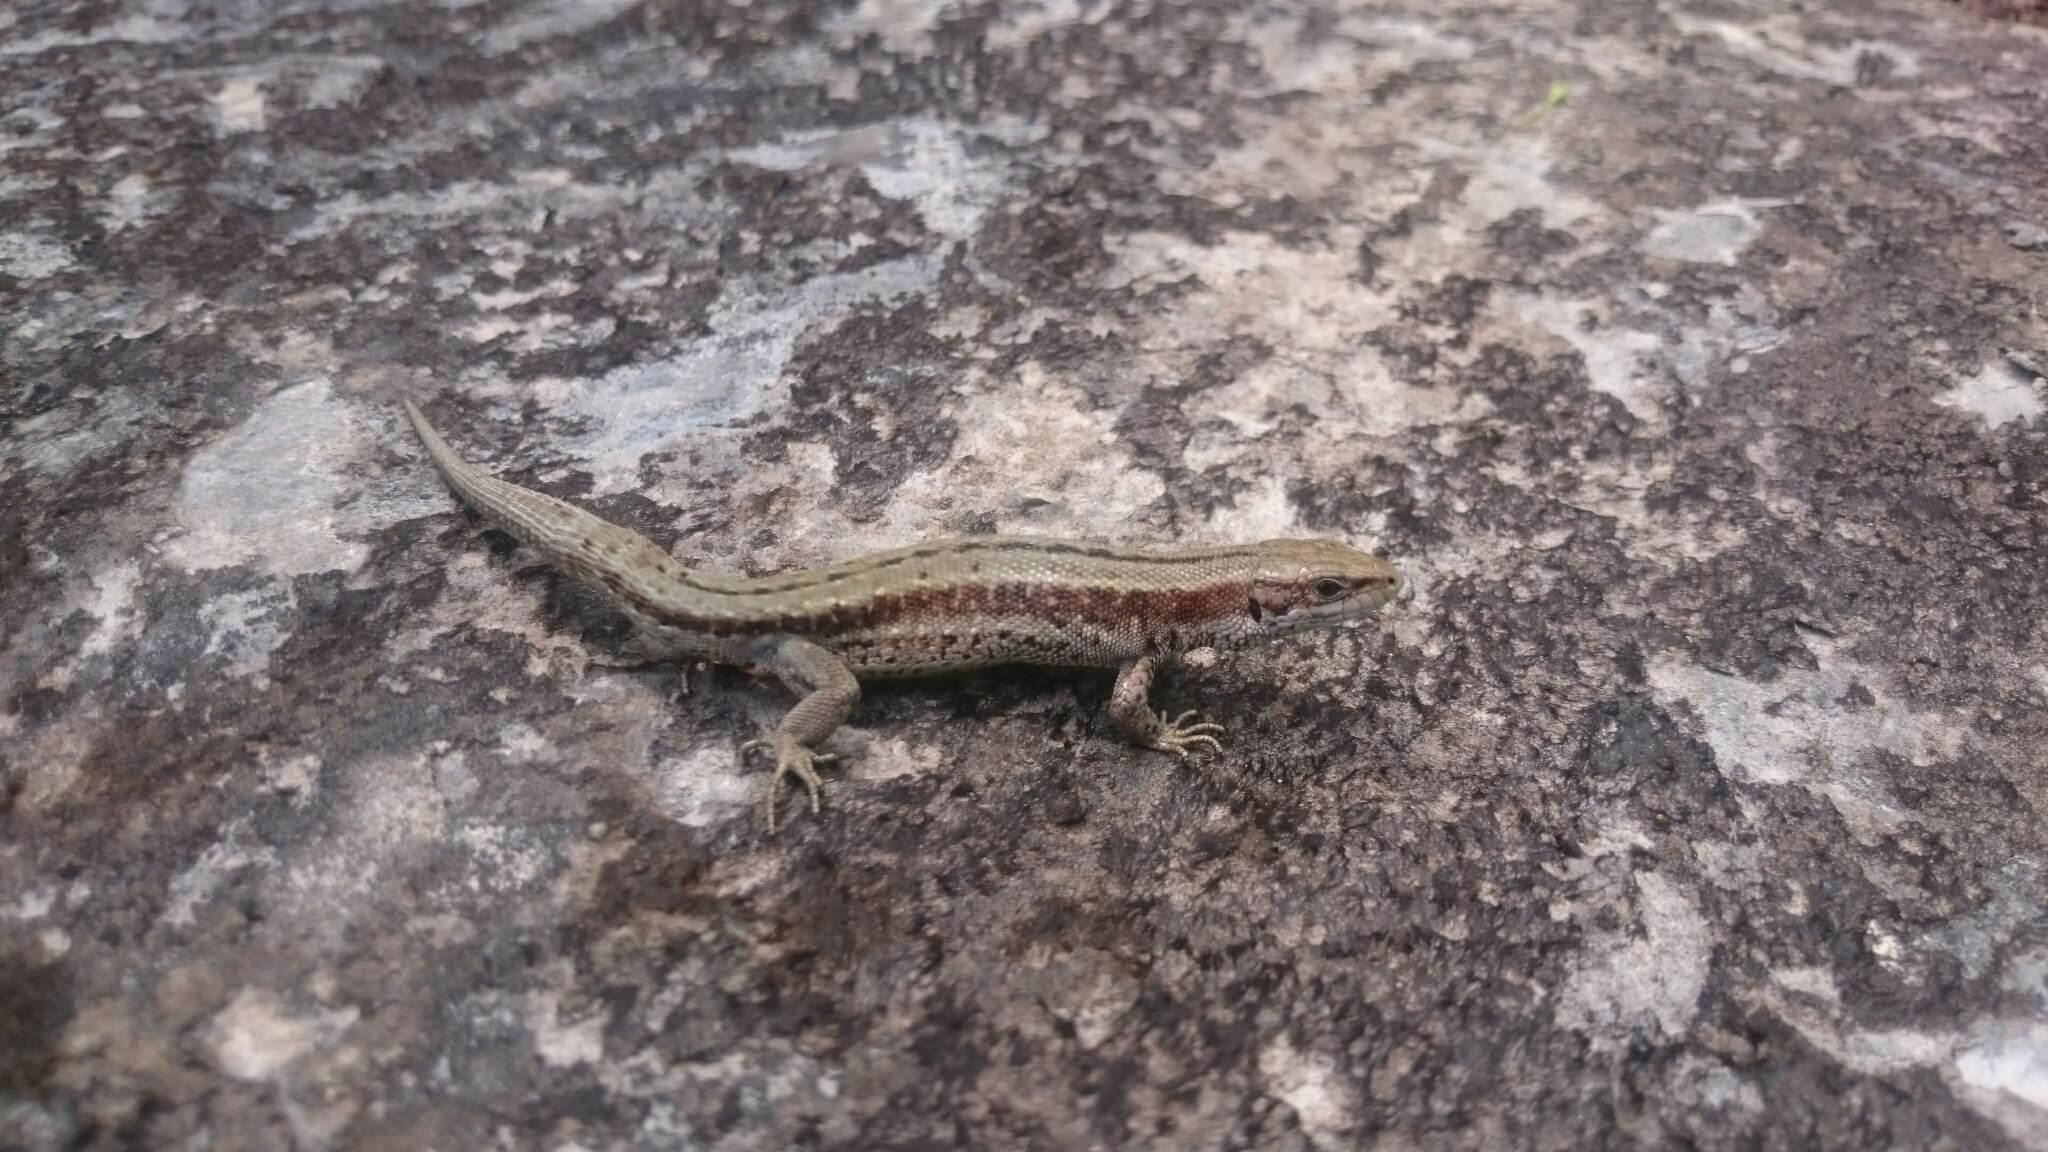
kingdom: Animalia
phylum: Chordata
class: Squamata
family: Lacertidae
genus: Zootoca
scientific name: Zootoca vivipara
